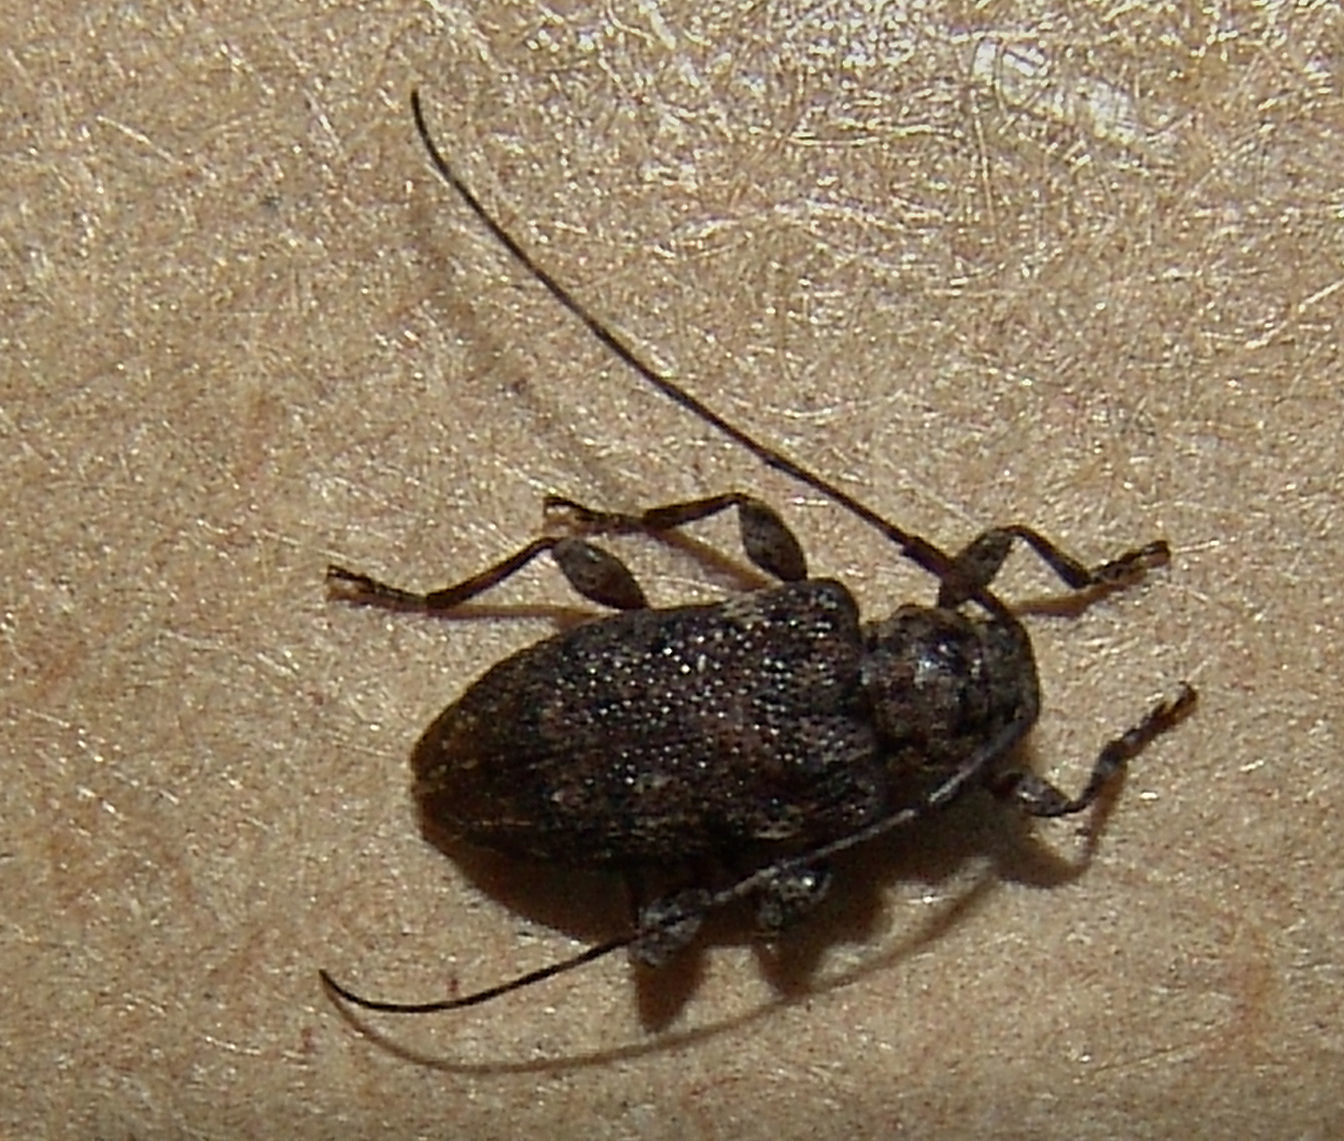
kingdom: Animalia
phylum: Arthropoda
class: Insecta
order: Coleoptera
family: Cerambycidae
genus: Astylopsis
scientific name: Astylopsis sexguttata
